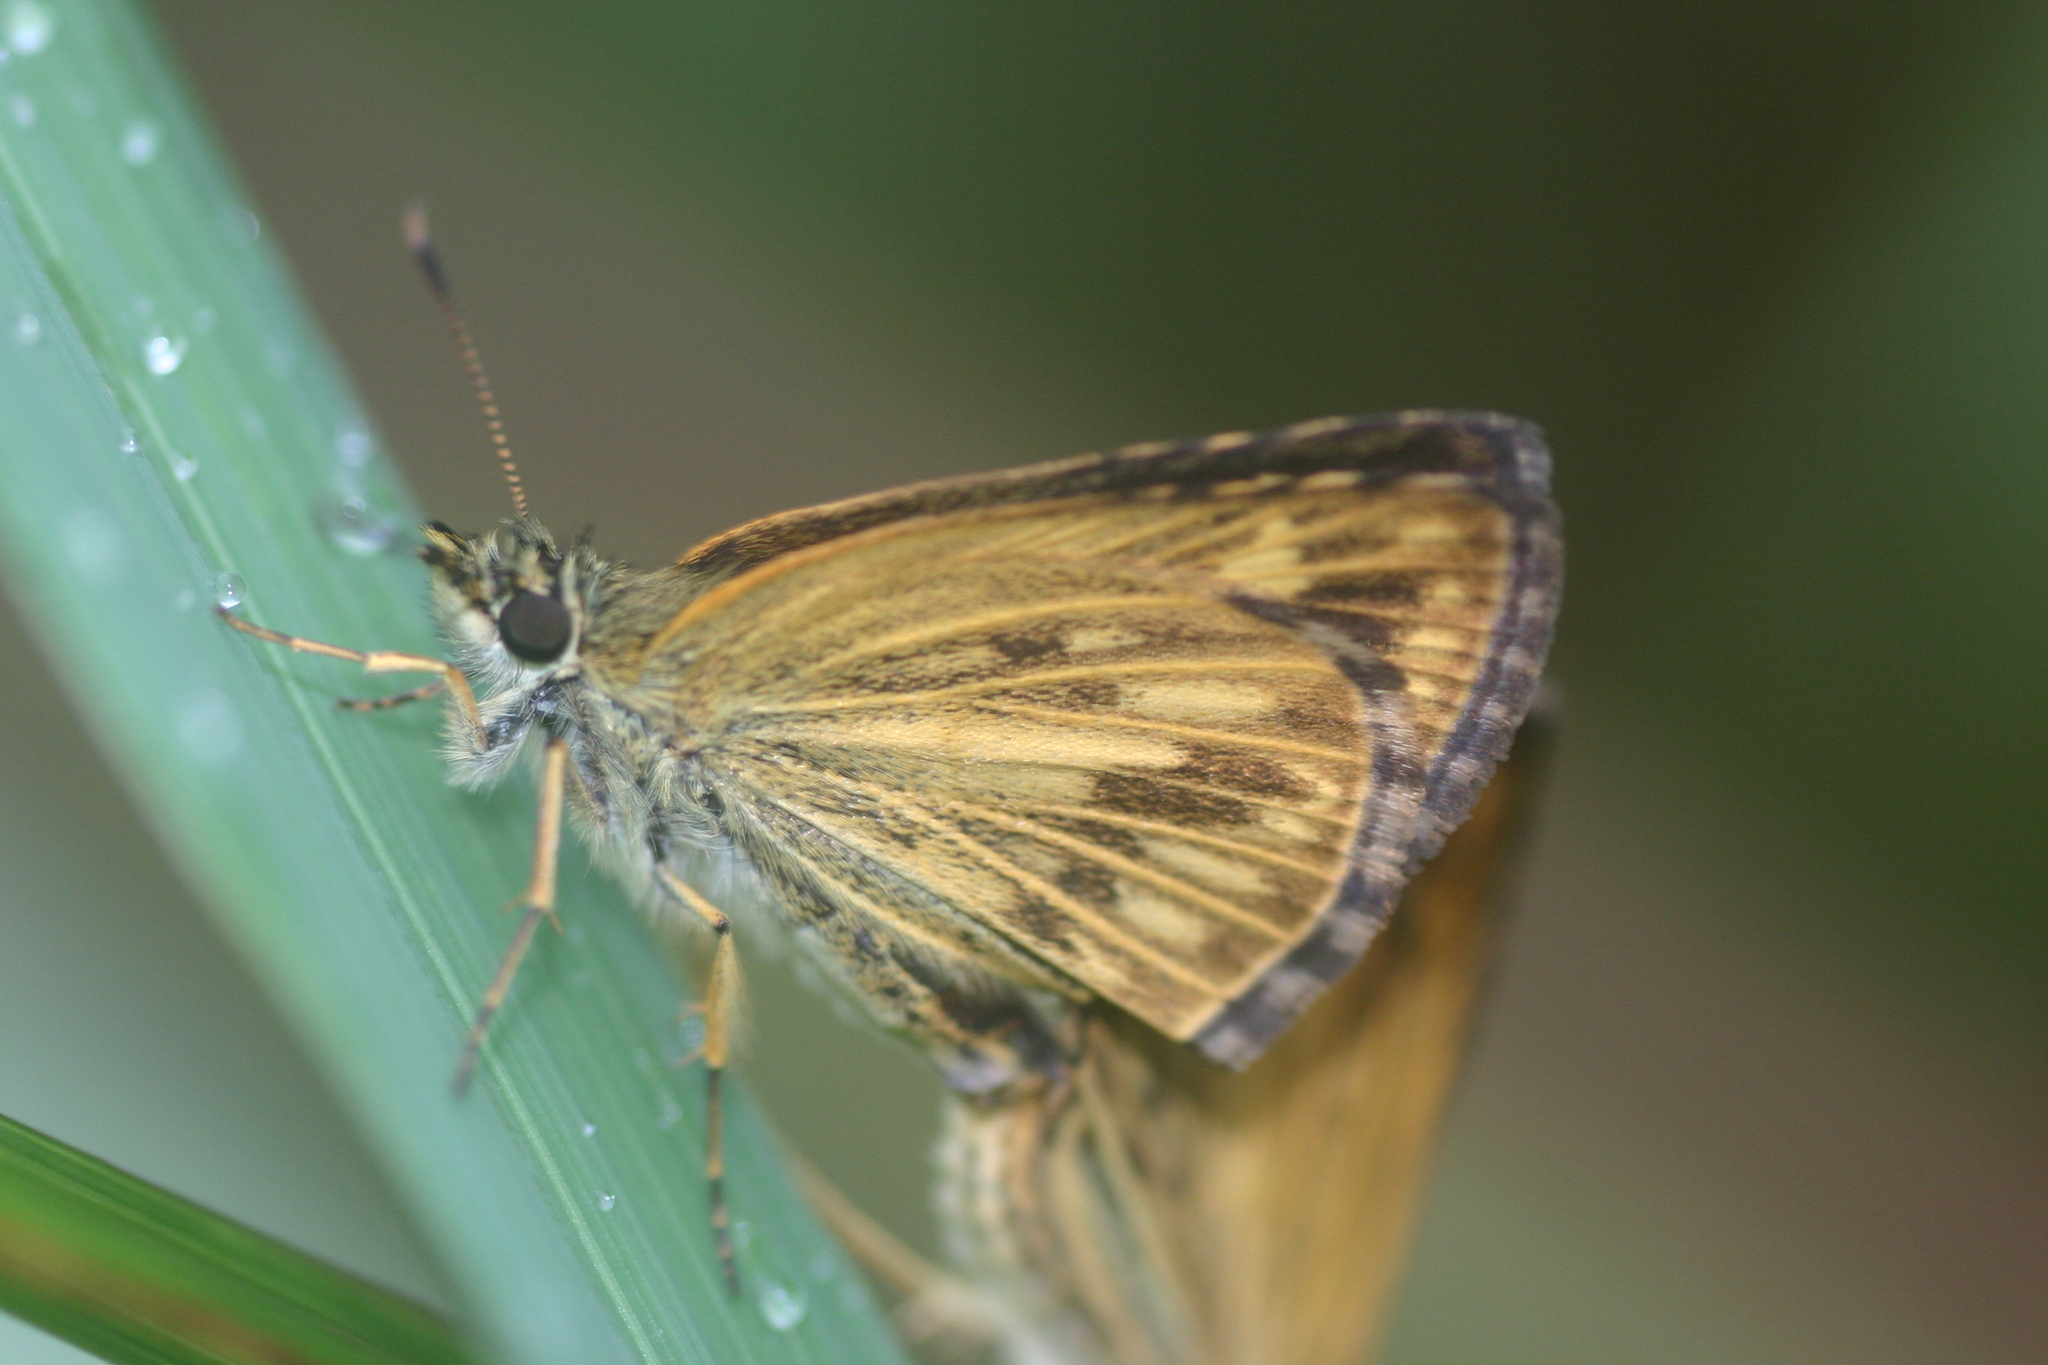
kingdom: Animalia
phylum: Arthropoda
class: Insecta
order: Lepidoptera
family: Hesperiidae
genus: Baracus
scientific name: Baracus vittatus
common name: Hedge-hopper
